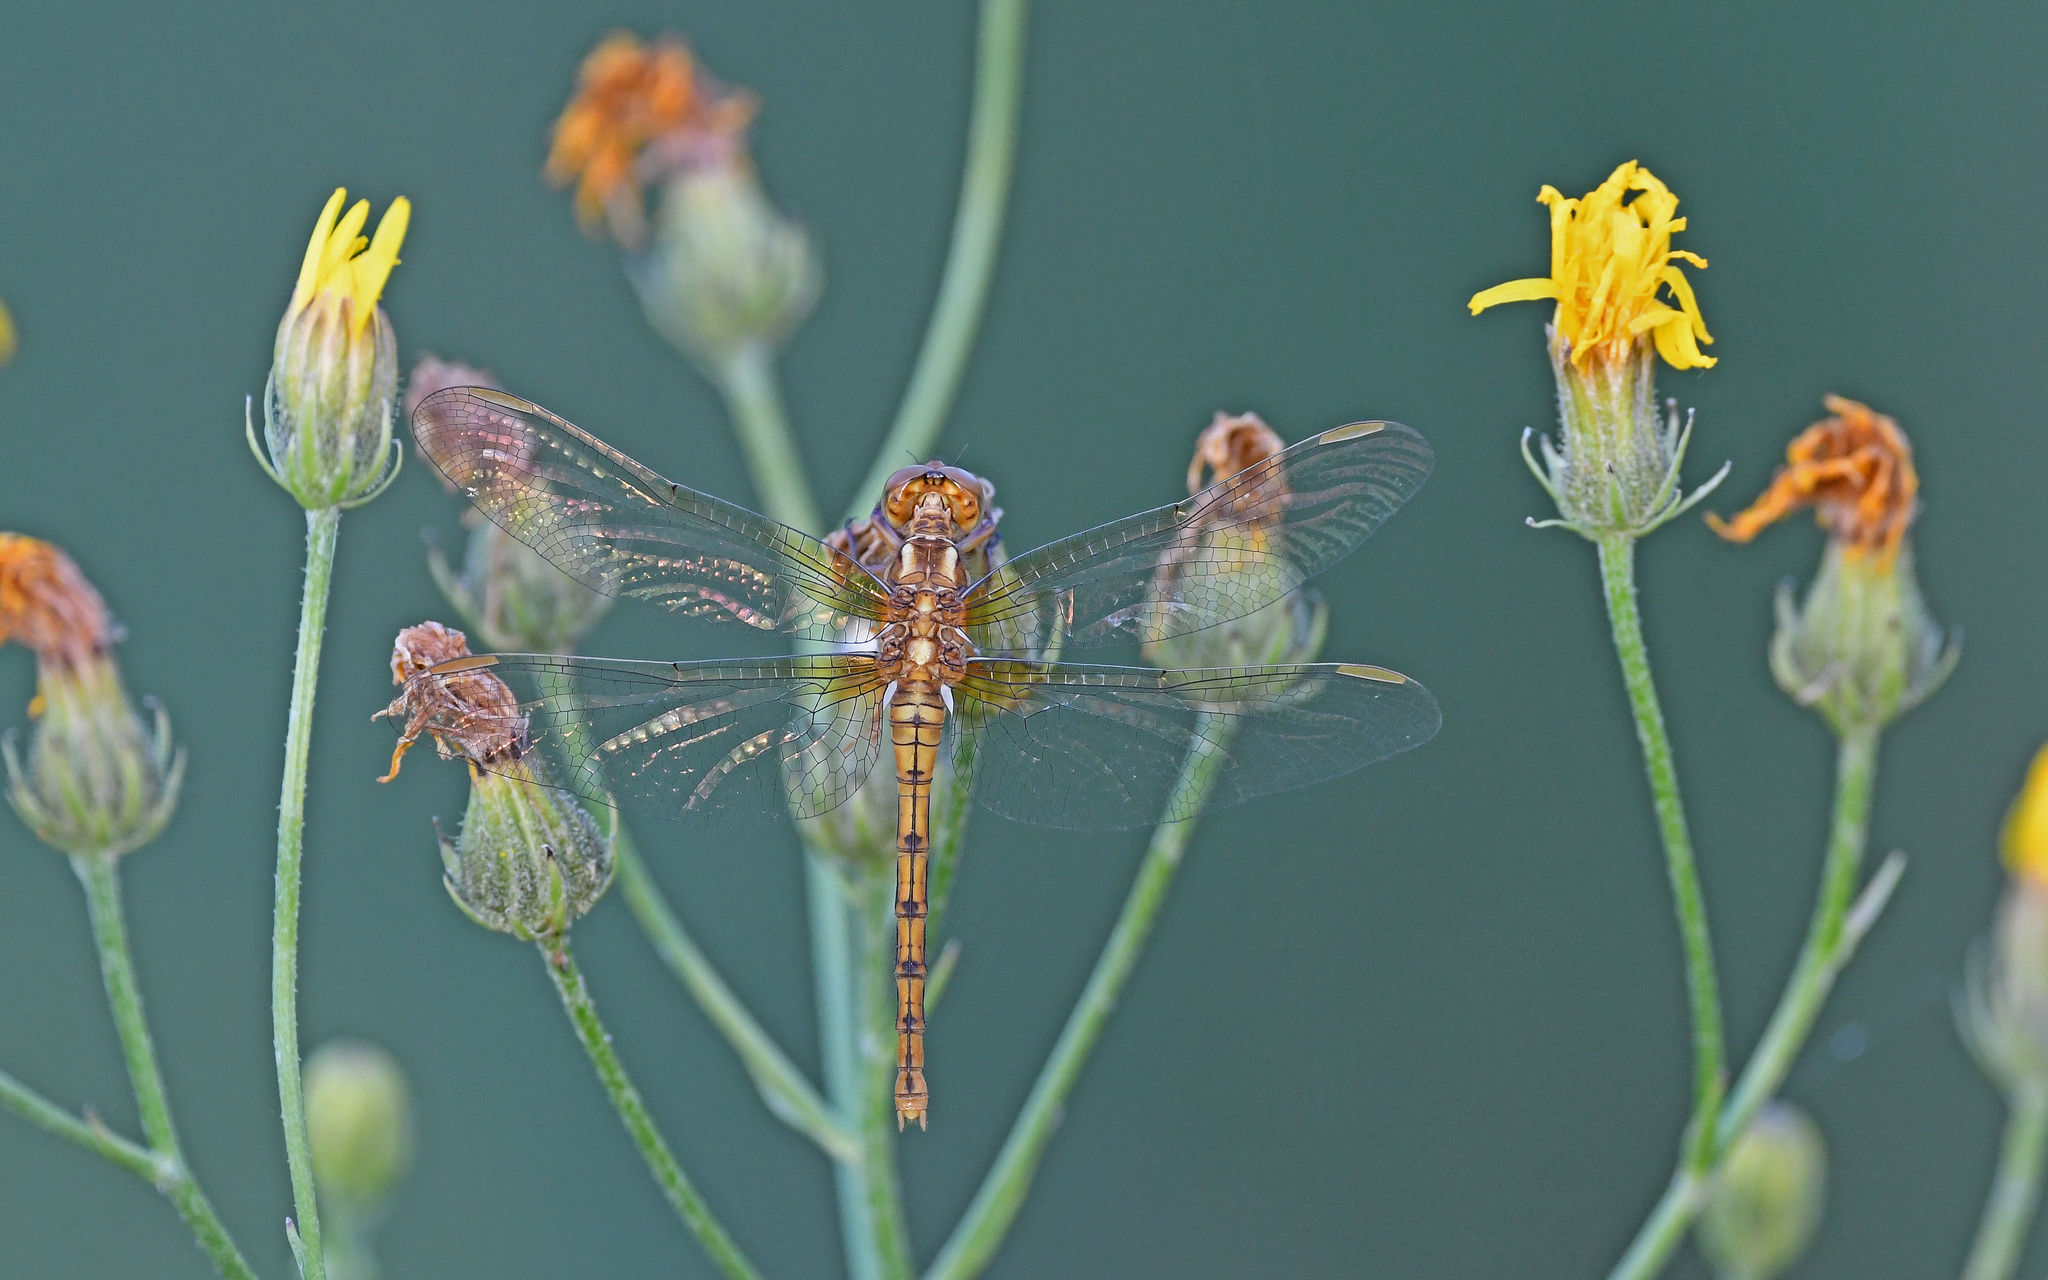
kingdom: Animalia
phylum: Arthropoda
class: Insecta
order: Odonata
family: Libellulidae
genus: Orthetrum
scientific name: Orthetrum coerulescens
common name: Keeled skimmer
